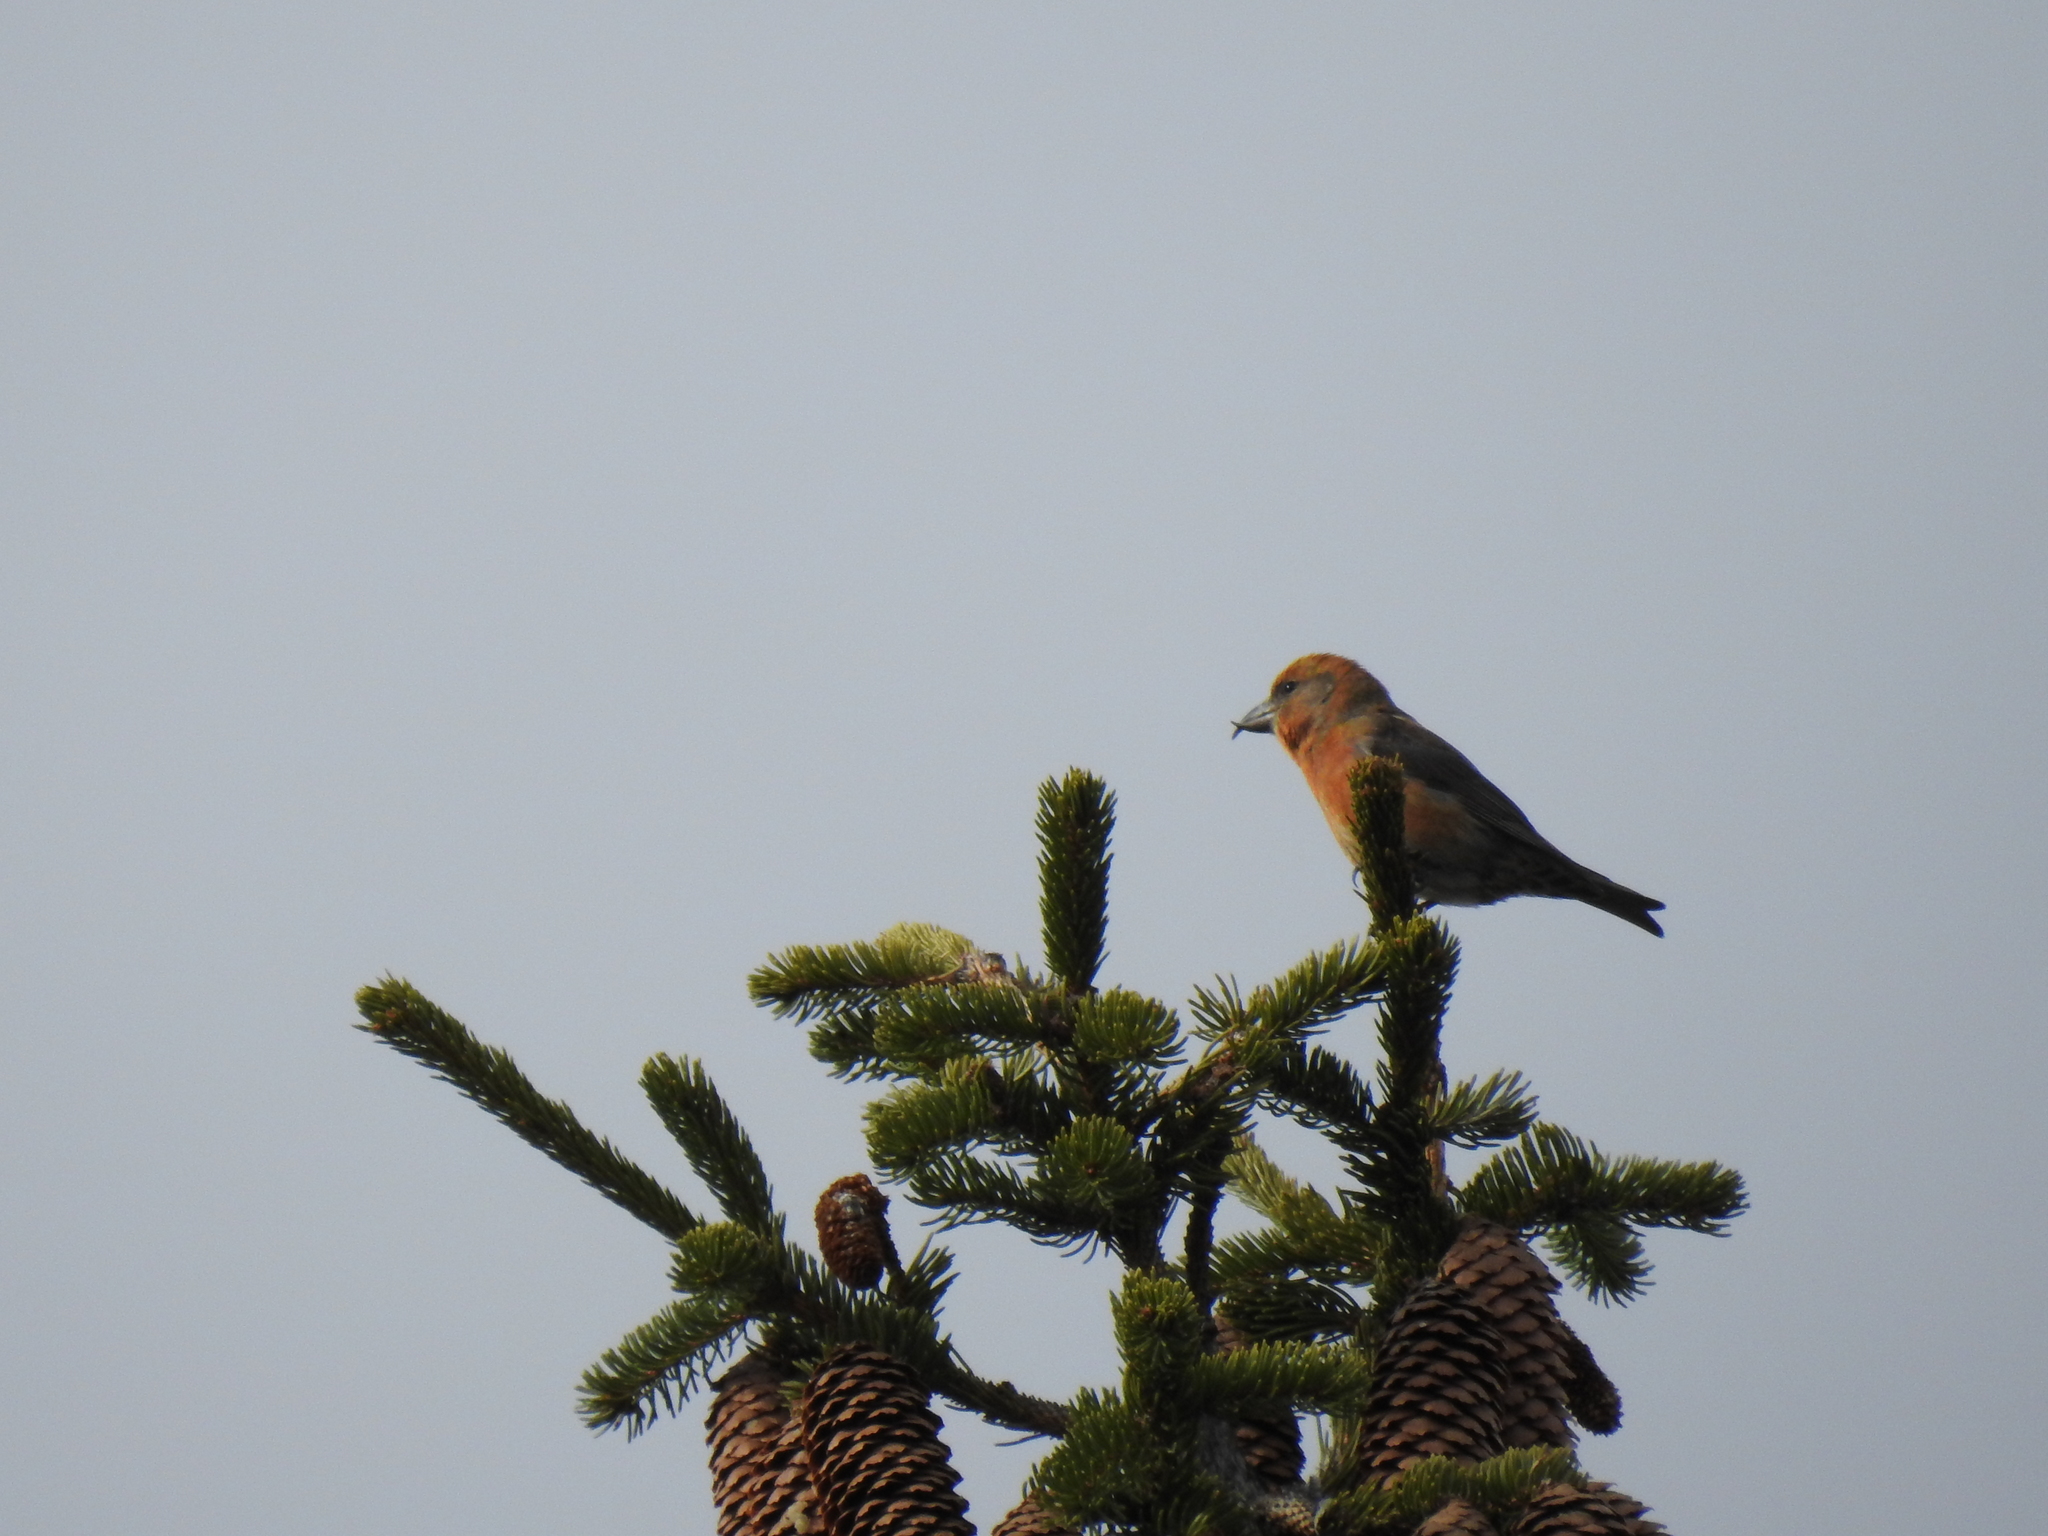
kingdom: Animalia
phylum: Chordata
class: Aves
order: Passeriformes
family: Fringillidae
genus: Loxia
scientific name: Loxia curvirostra
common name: Red crossbill
